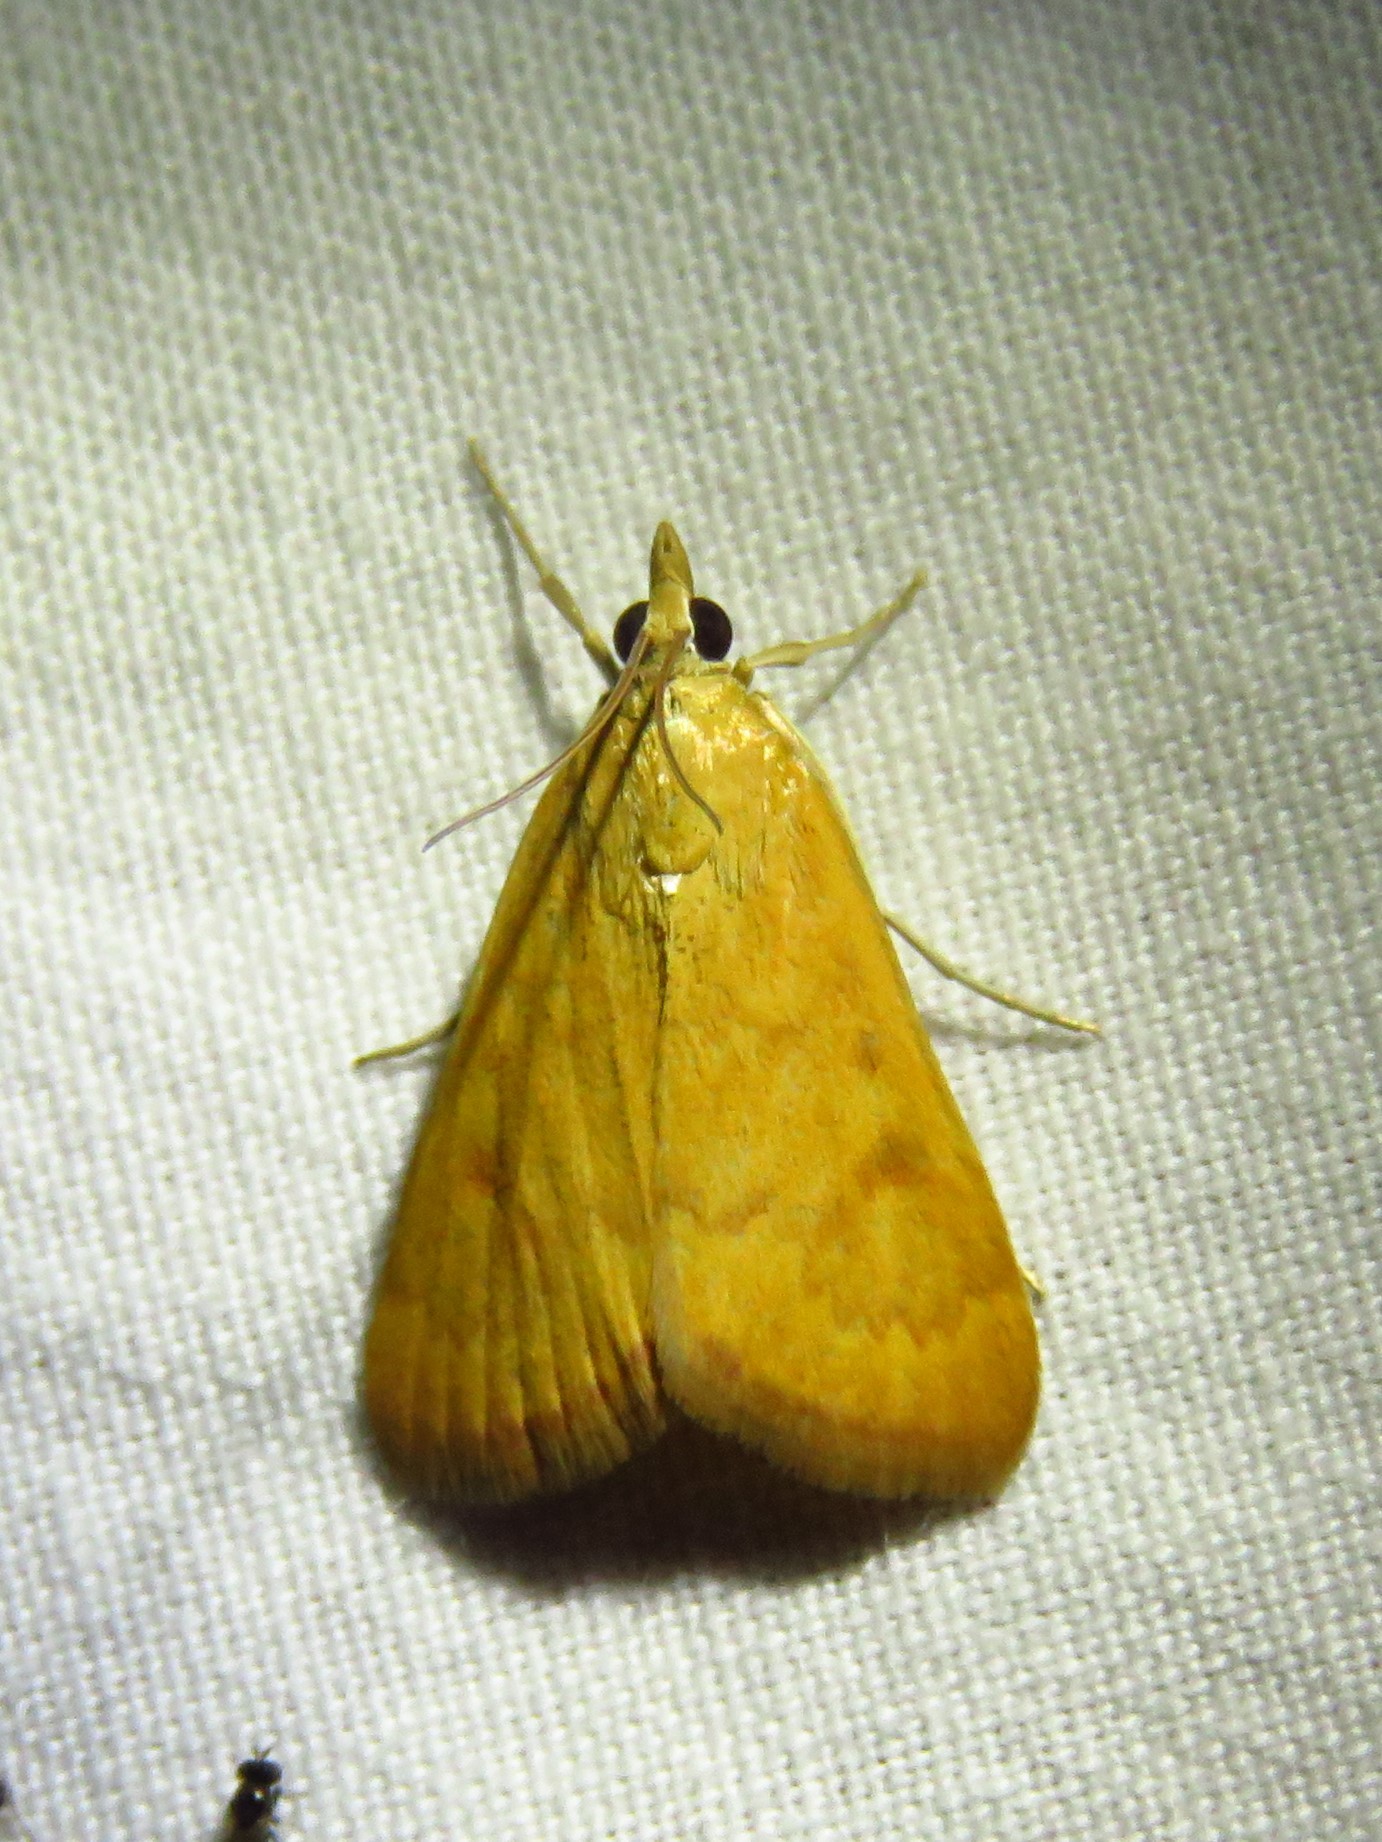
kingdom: Animalia
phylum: Arthropoda
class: Insecta
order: Lepidoptera
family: Crambidae
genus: Achyra
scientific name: Achyra rantalis
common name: Garden webworm
